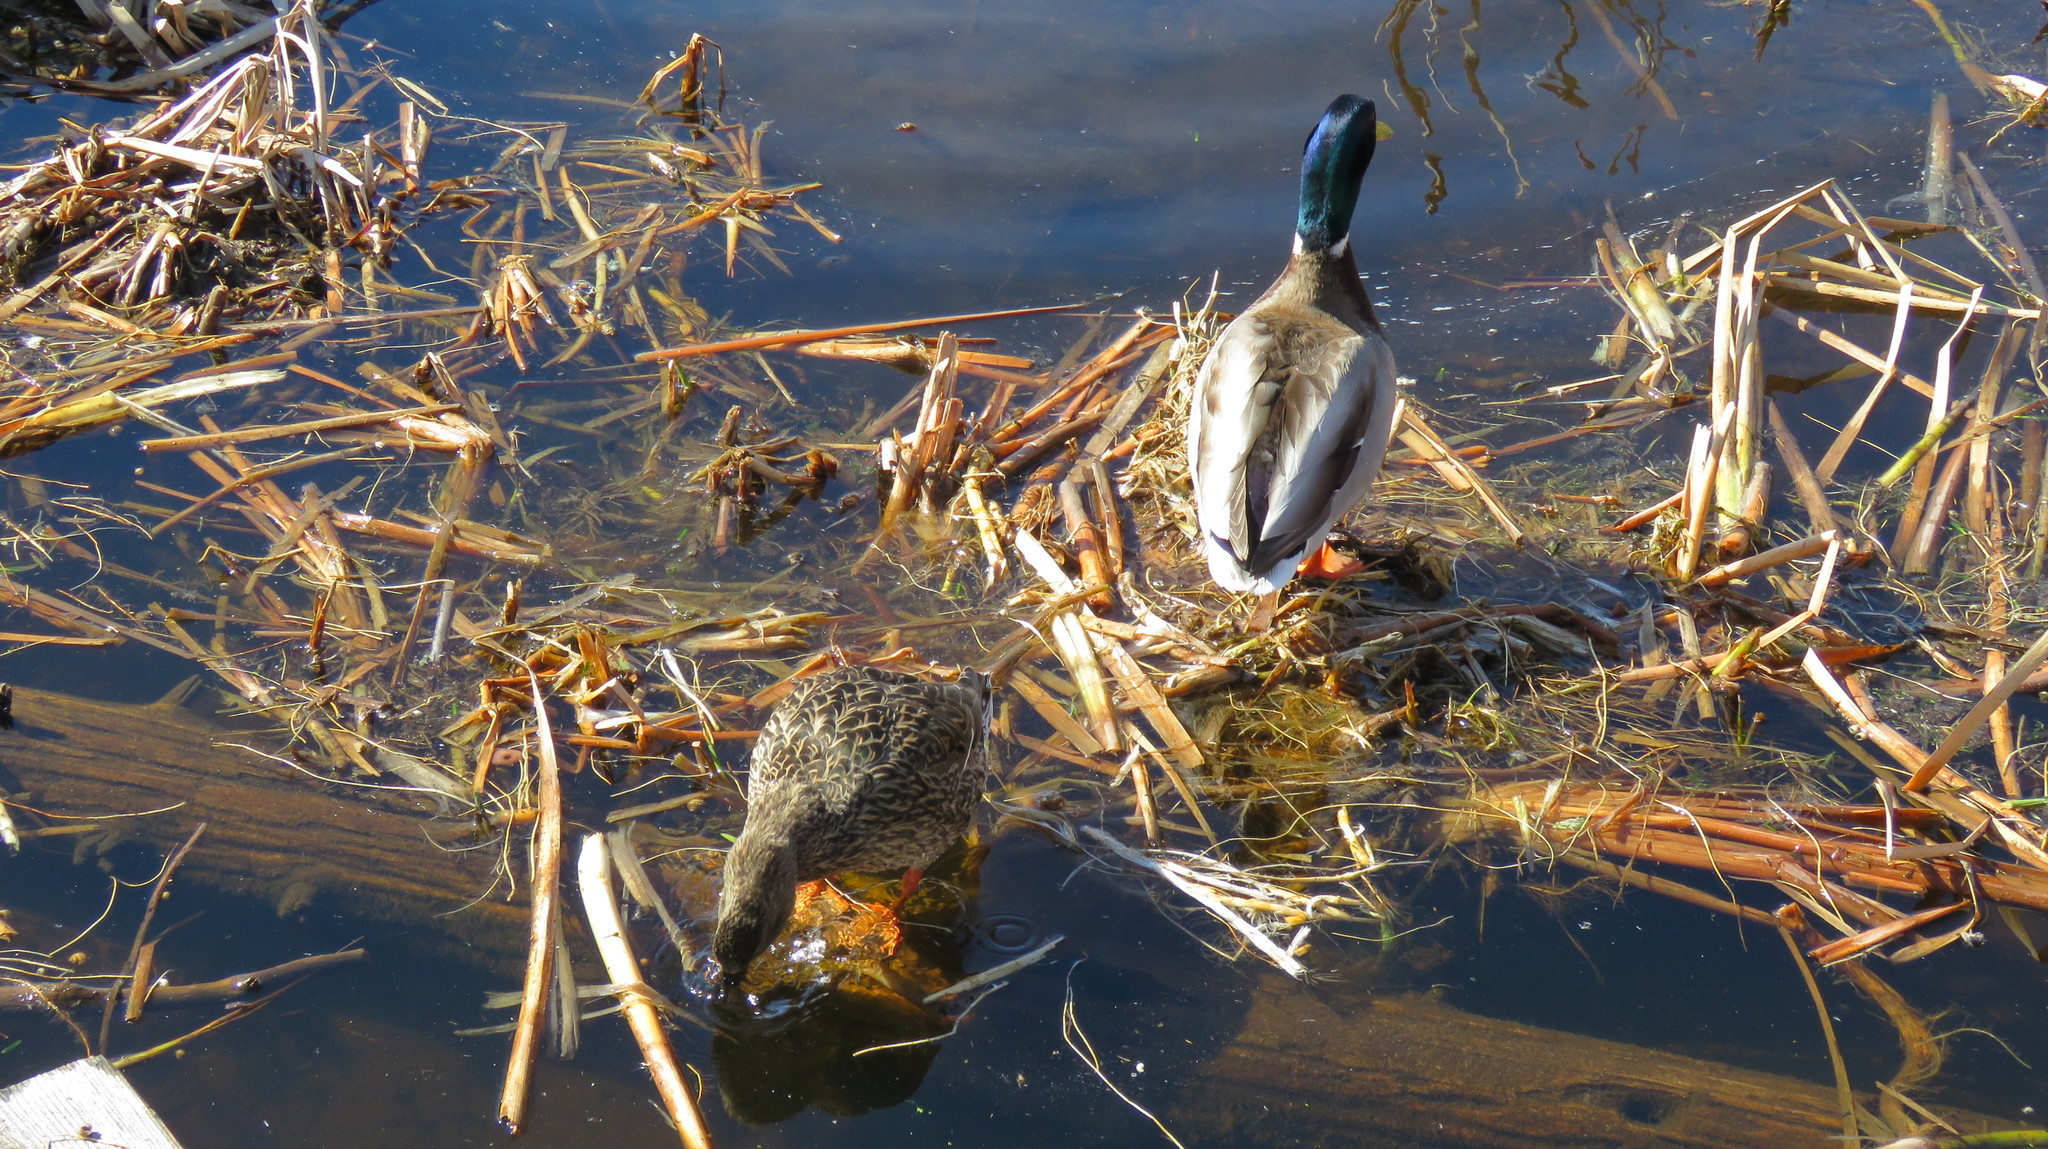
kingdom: Animalia
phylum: Chordata
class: Aves
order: Anseriformes
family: Anatidae
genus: Anas
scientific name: Anas platyrhynchos
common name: Mallard
